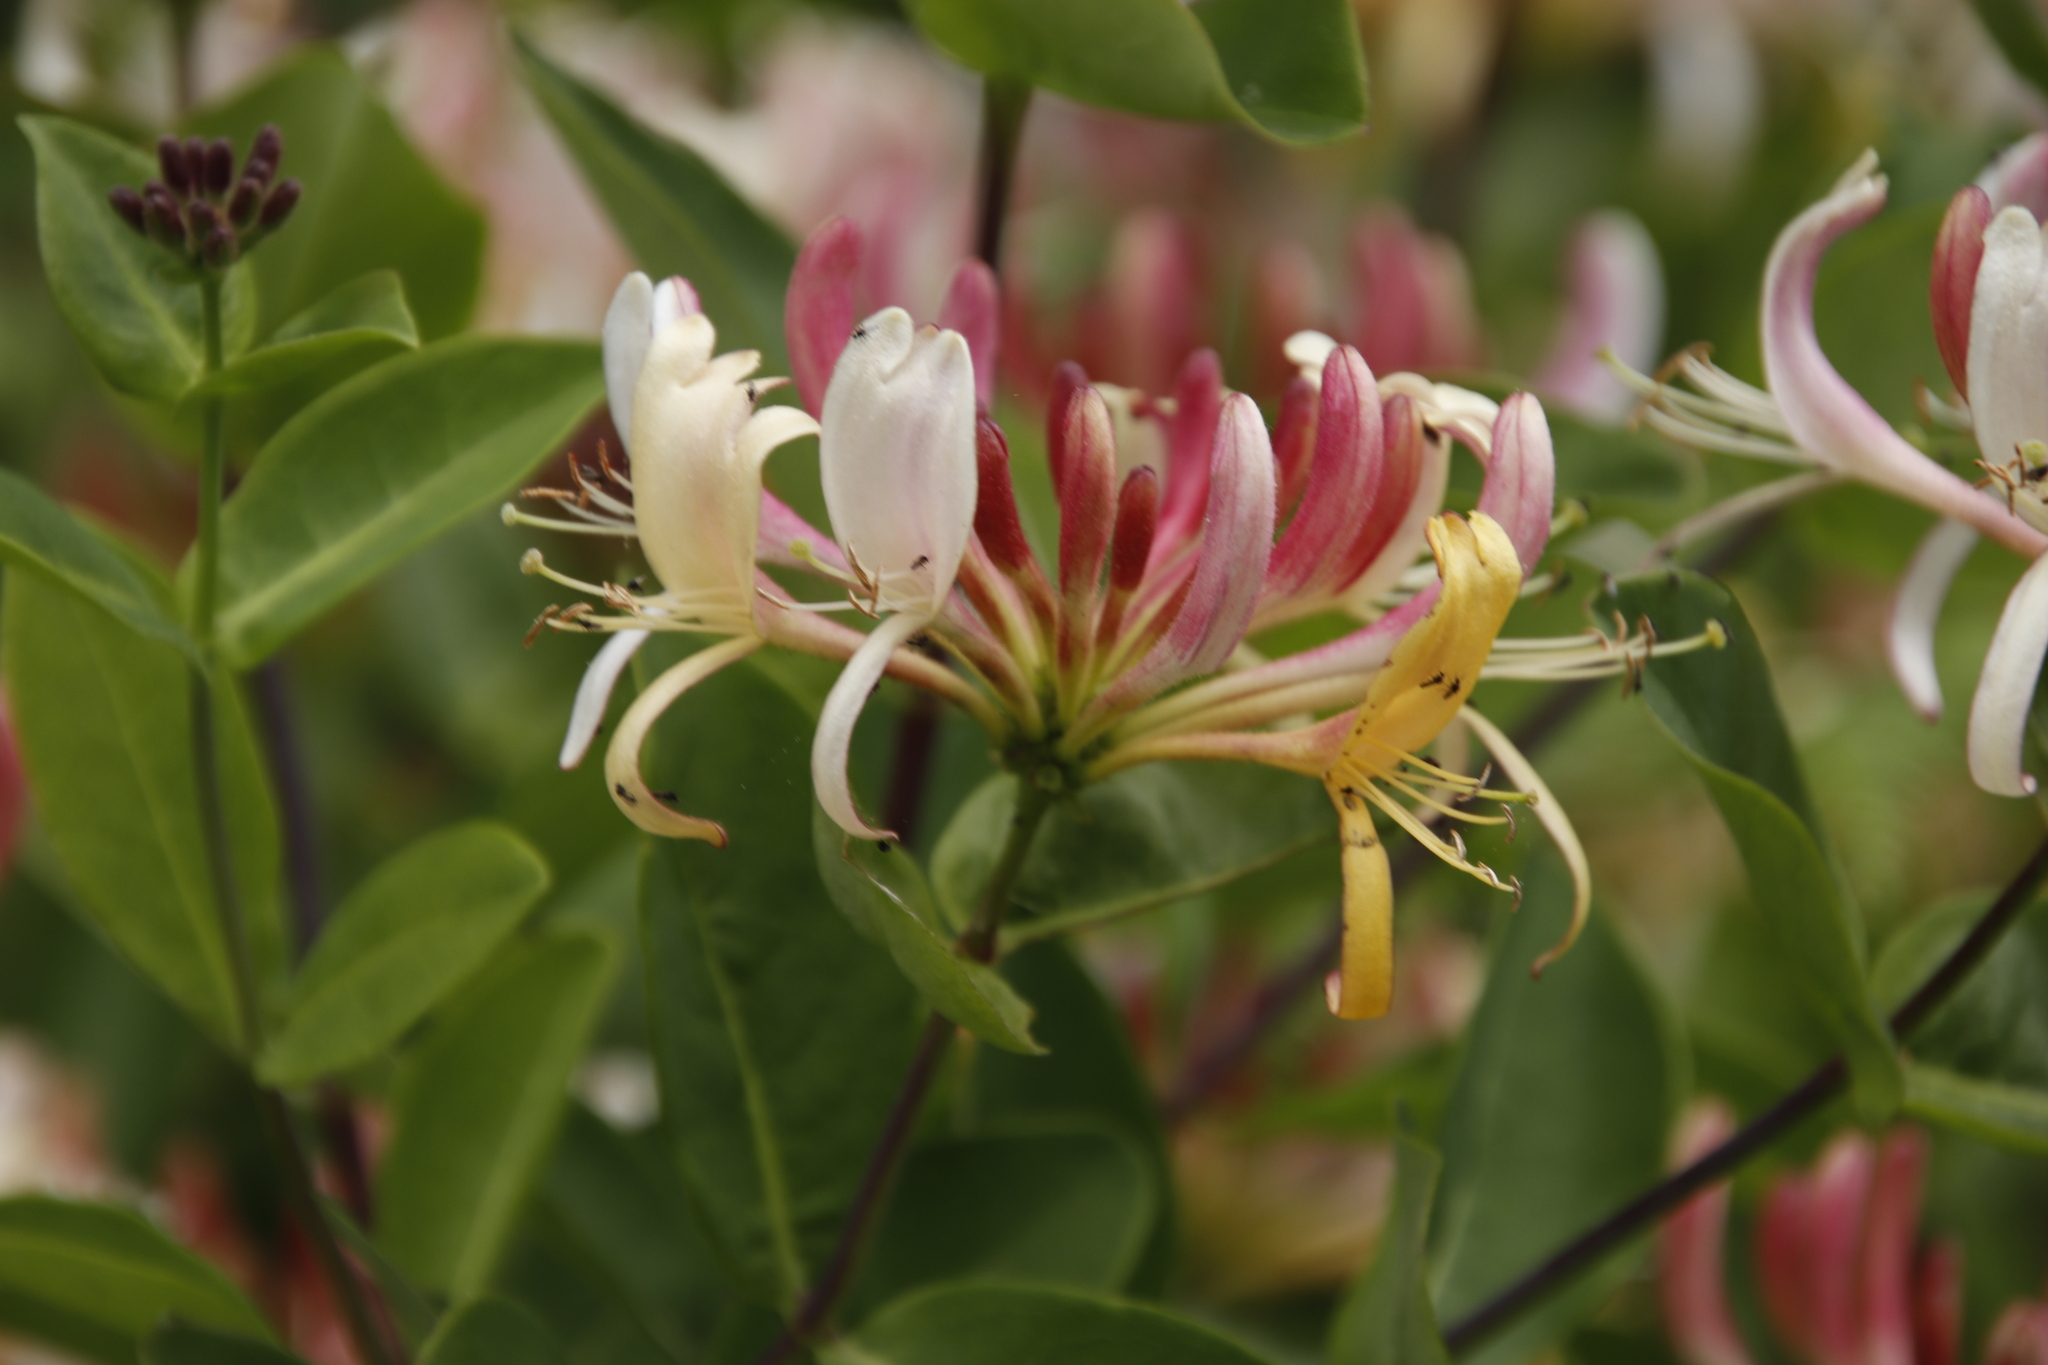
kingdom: Plantae
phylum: Tracheophyta
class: Magnoliopsida
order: Dipsacales
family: Caprifoliaceae
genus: Lonicera
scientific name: Lonicera periclymenum
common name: European honeysuckle
